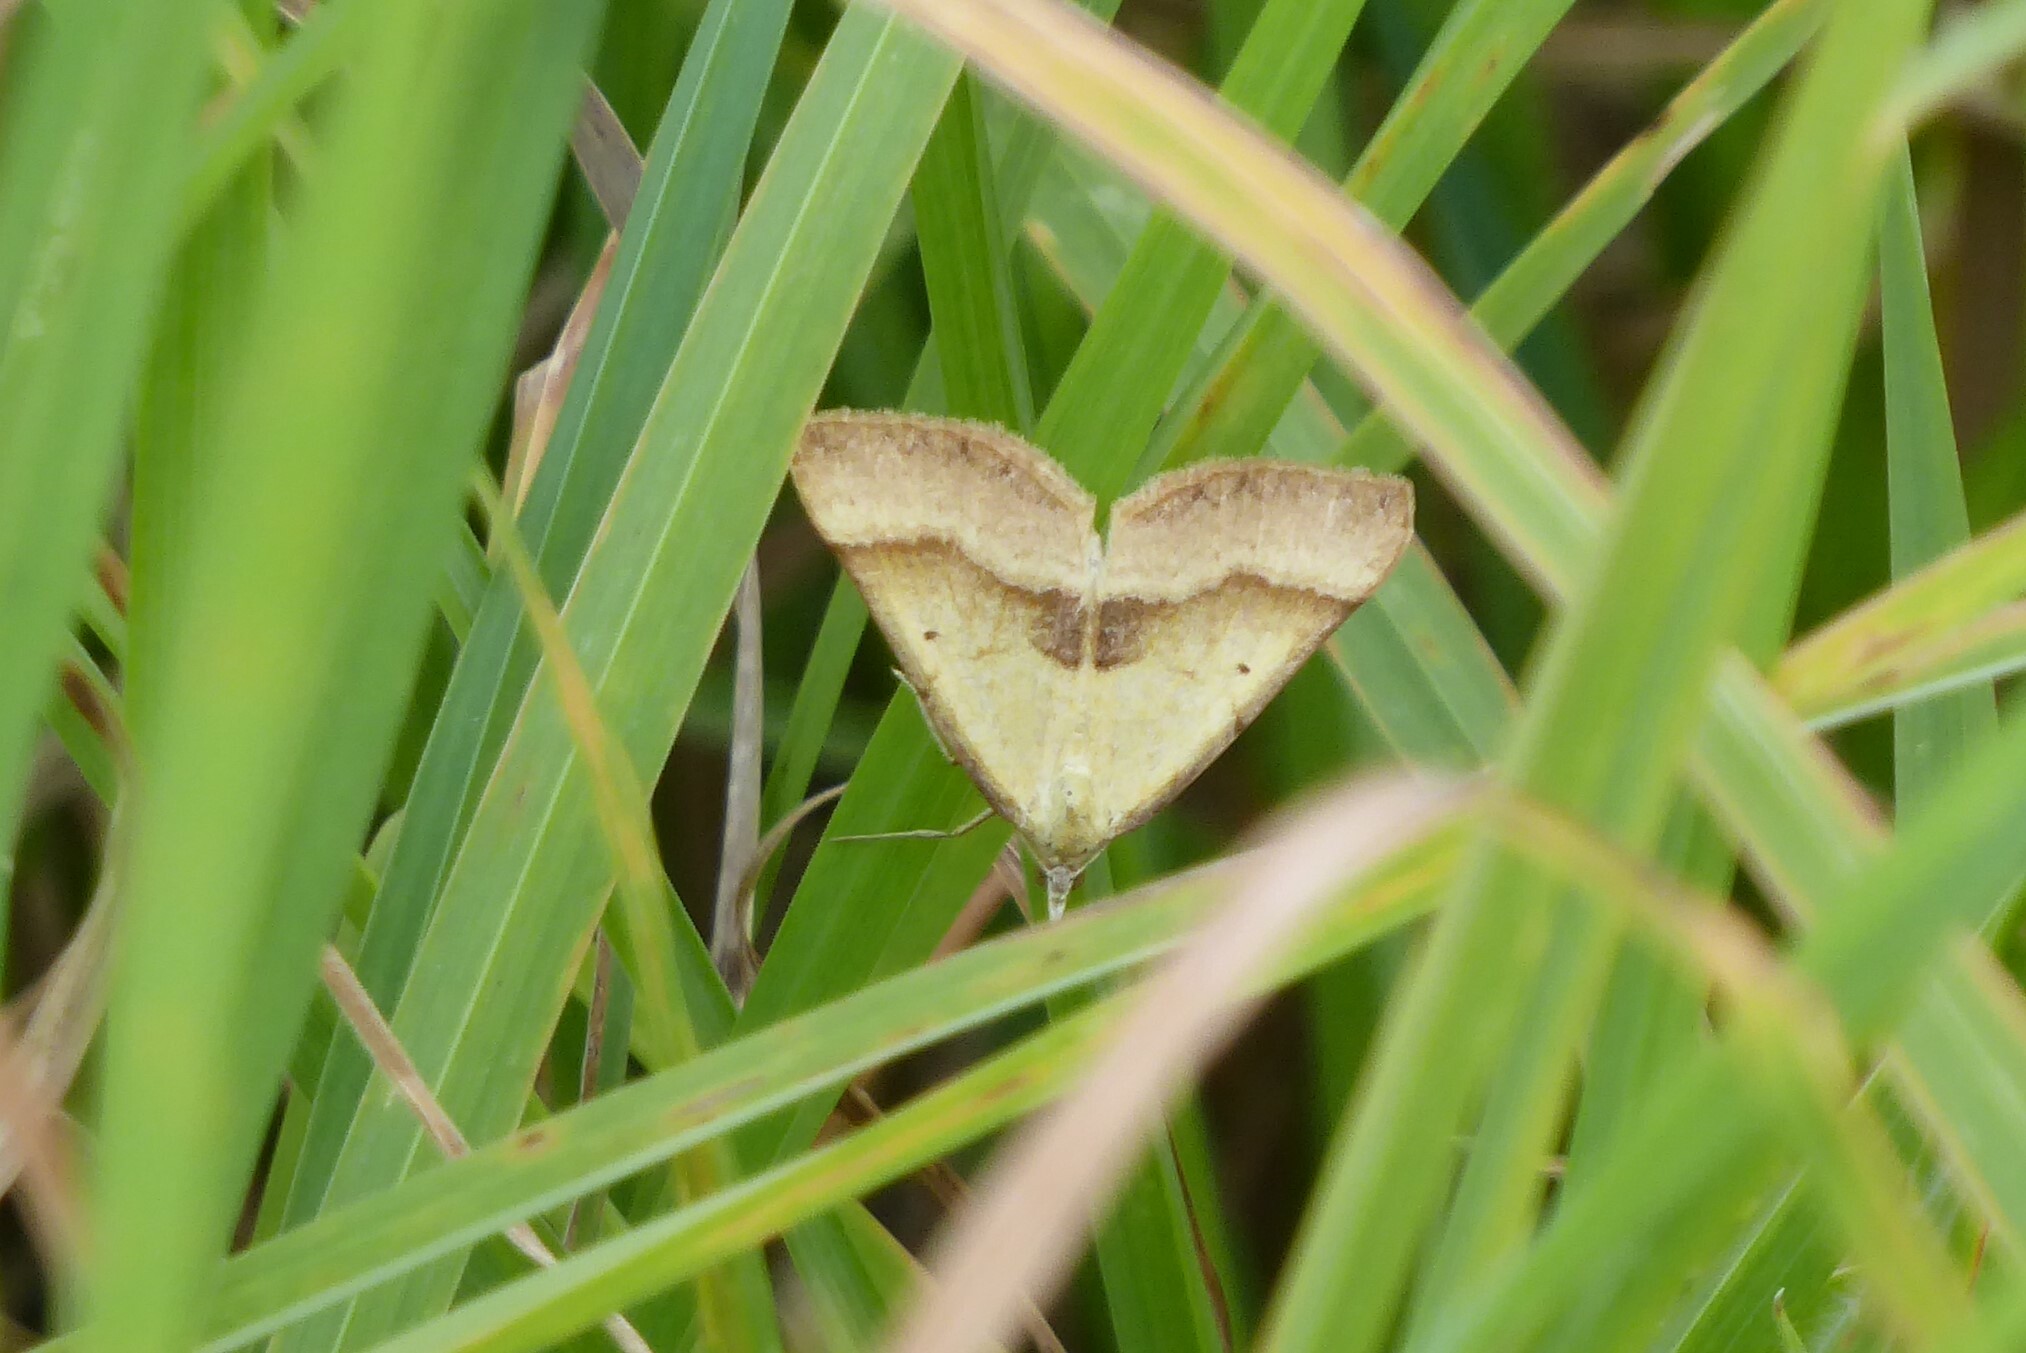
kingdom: Animalia
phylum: Arthropoda
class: Insecta
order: Lepidoptera
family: Geometridae
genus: Anachloris
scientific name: Anachloris subochraria
